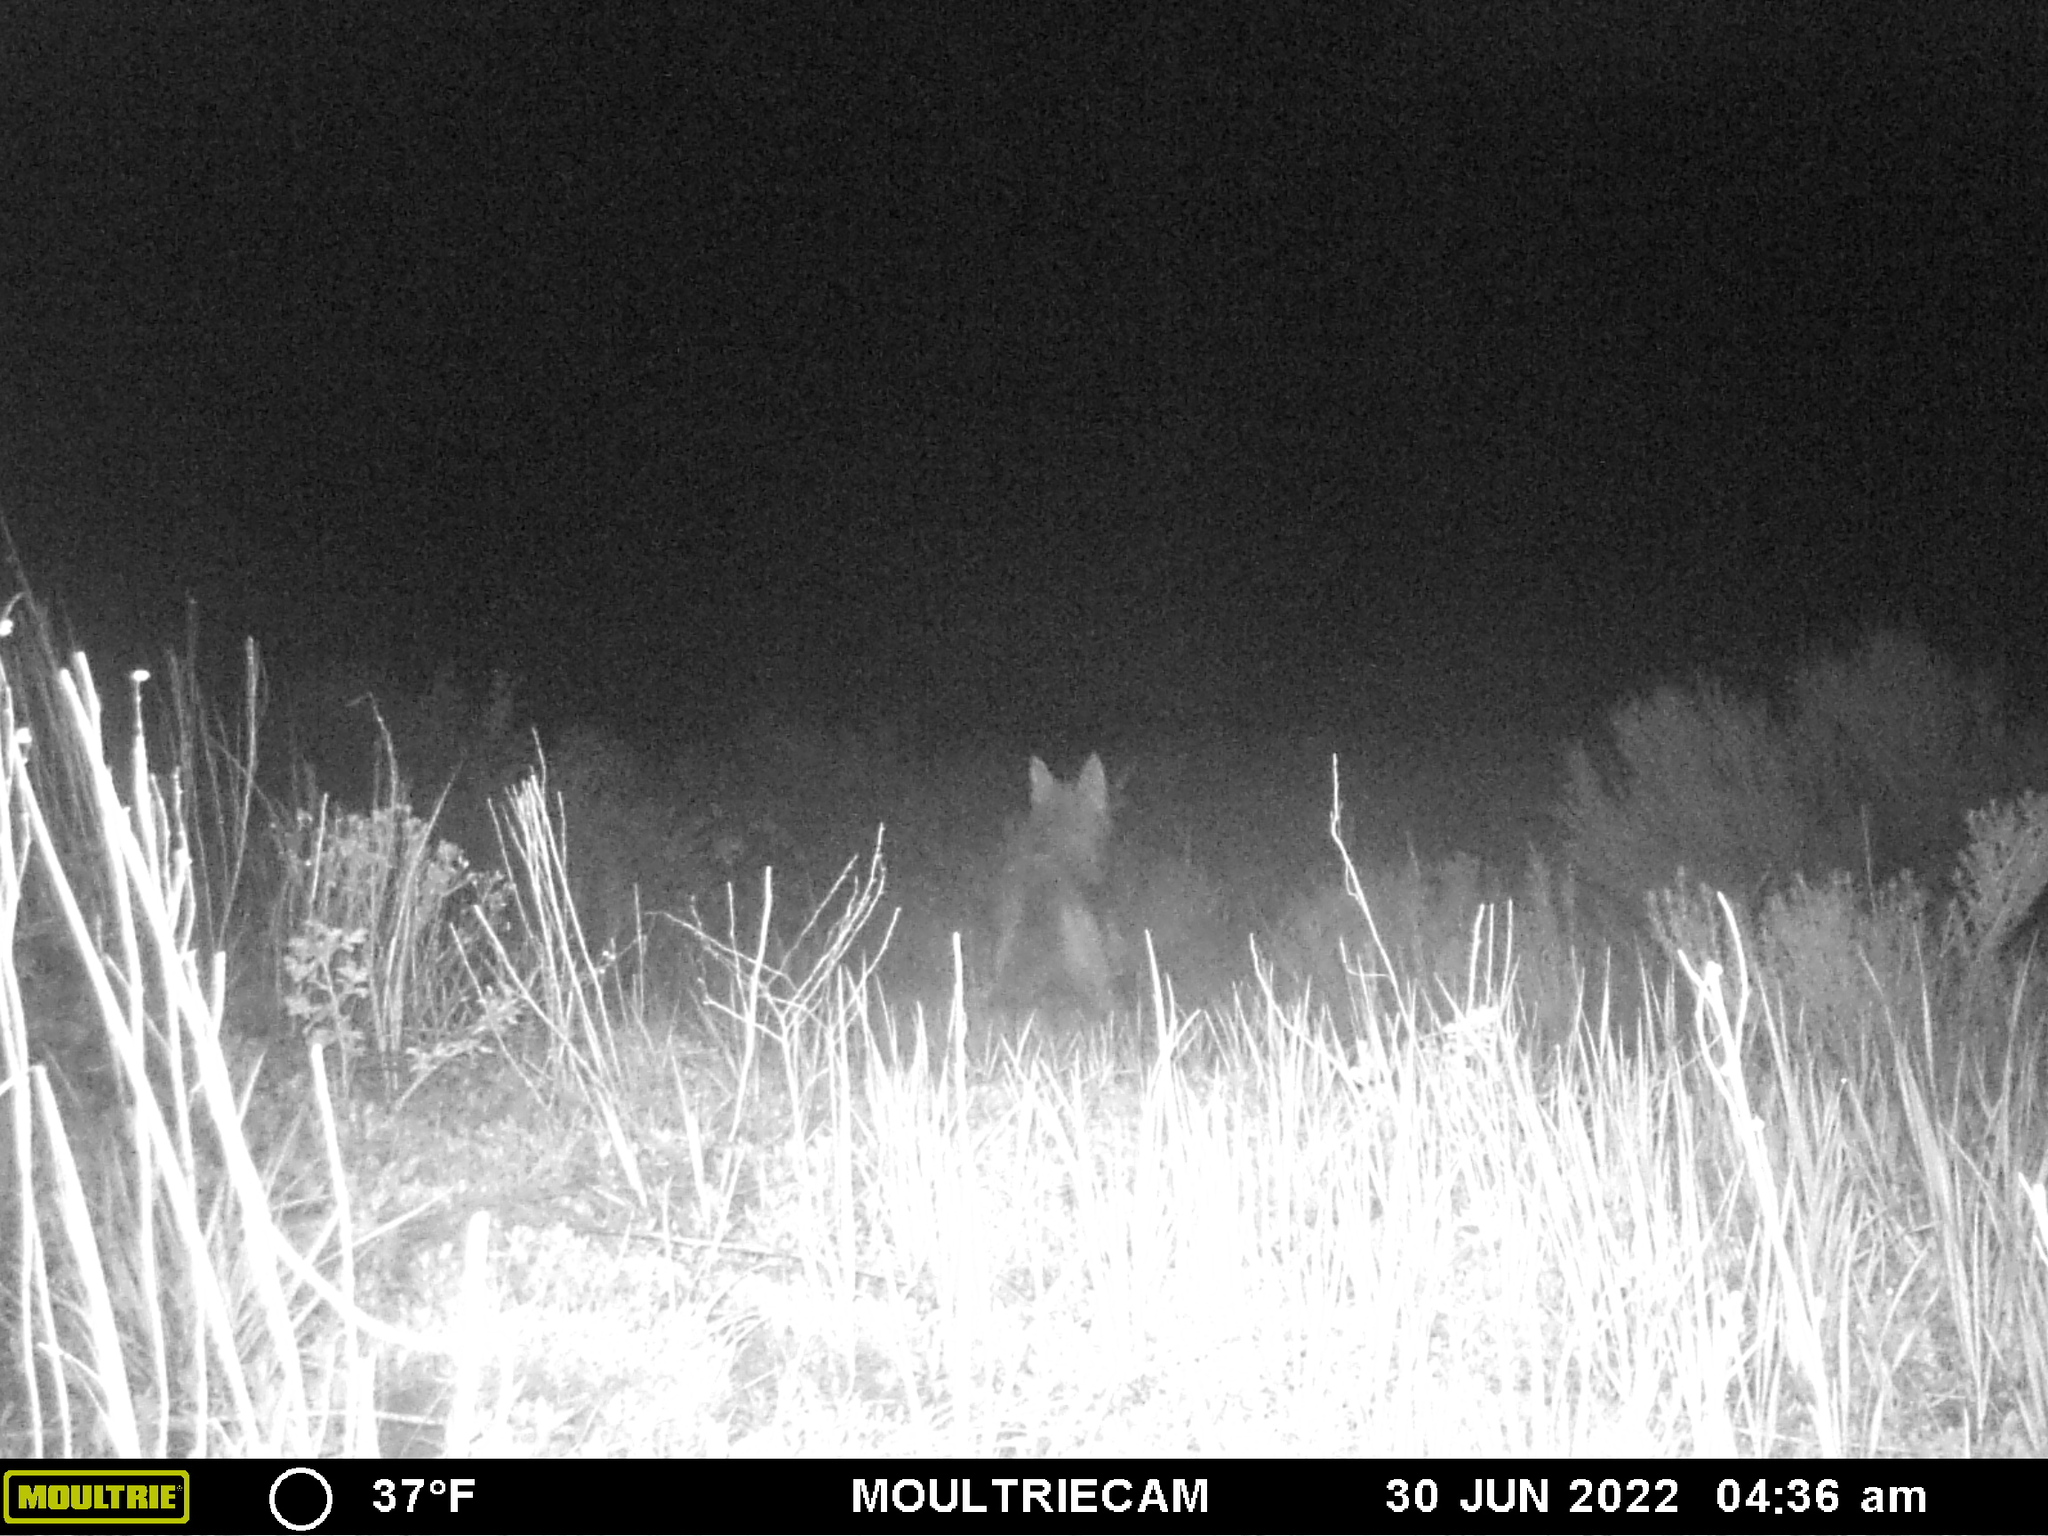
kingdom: Animalia
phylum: Chordata
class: Mammalia
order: Carnivora
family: Canidae
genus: Canis
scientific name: Canis latrans
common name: Coyote
